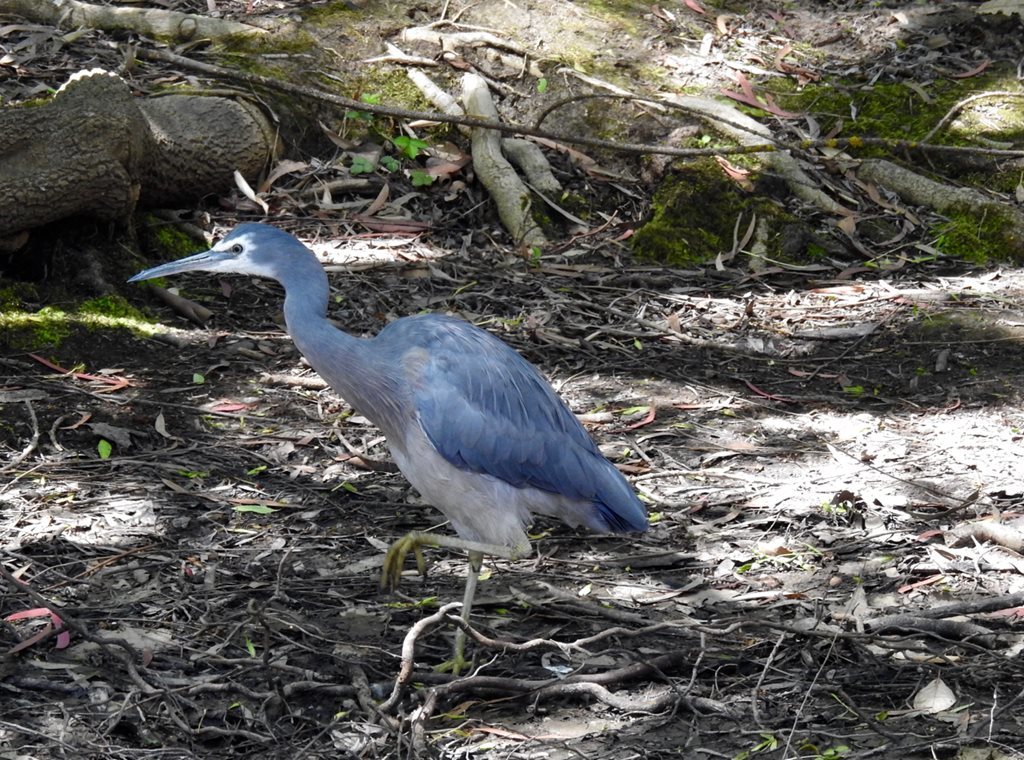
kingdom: Animalia
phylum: Chordata
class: Aves
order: Pelecaniformes
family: Ardeidae
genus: Egretta
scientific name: Egretta novaehollandiae
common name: White-faced heron
